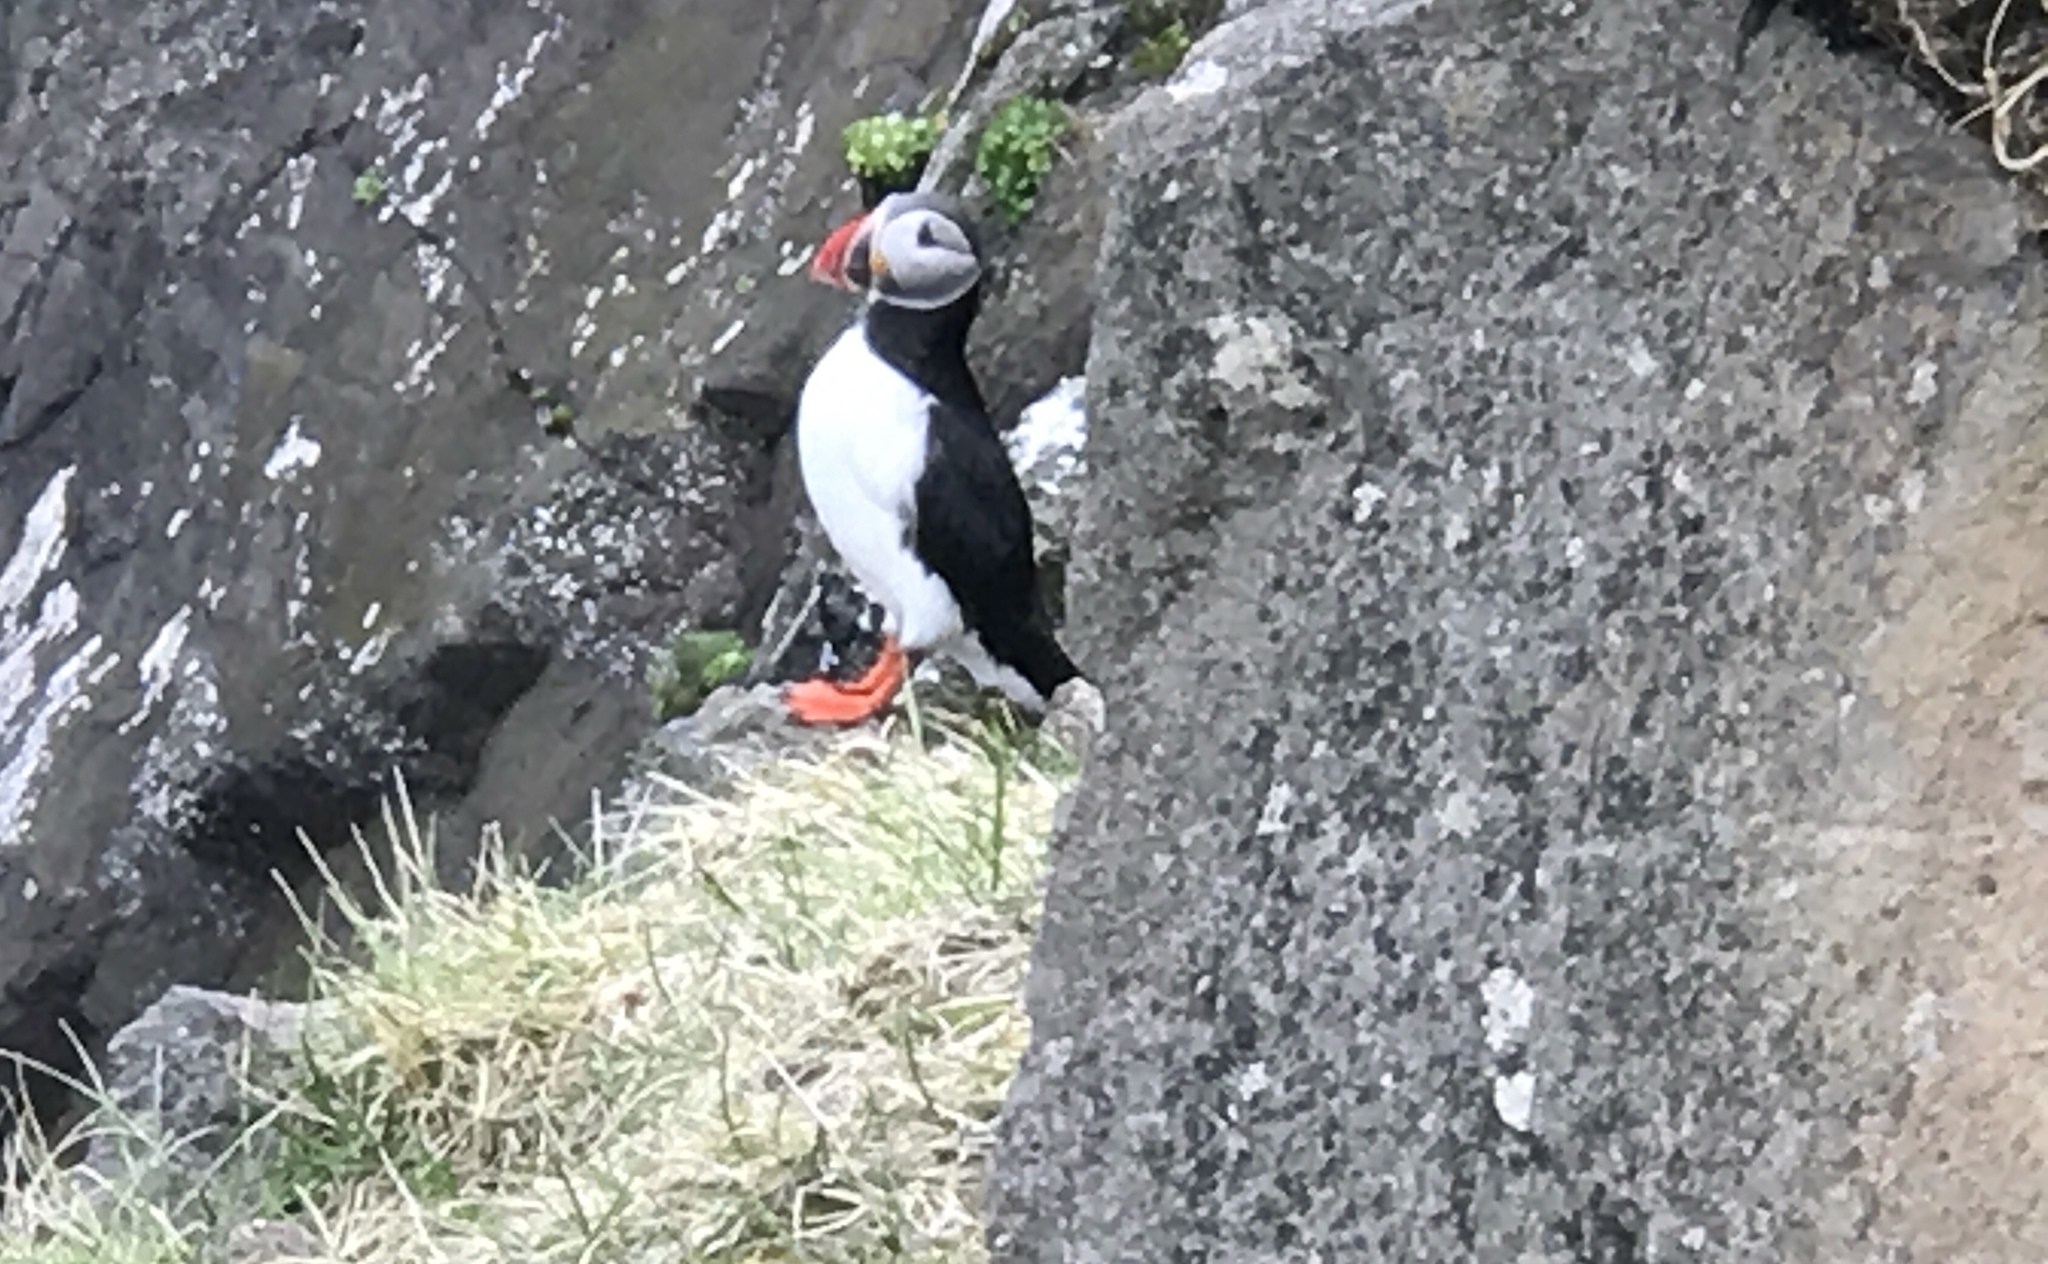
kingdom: Animalia
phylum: Chordata
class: Aves
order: Charadriiformes
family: Alcidae
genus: Fratercula
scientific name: Fratercula arctica
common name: Atlantic puffin
